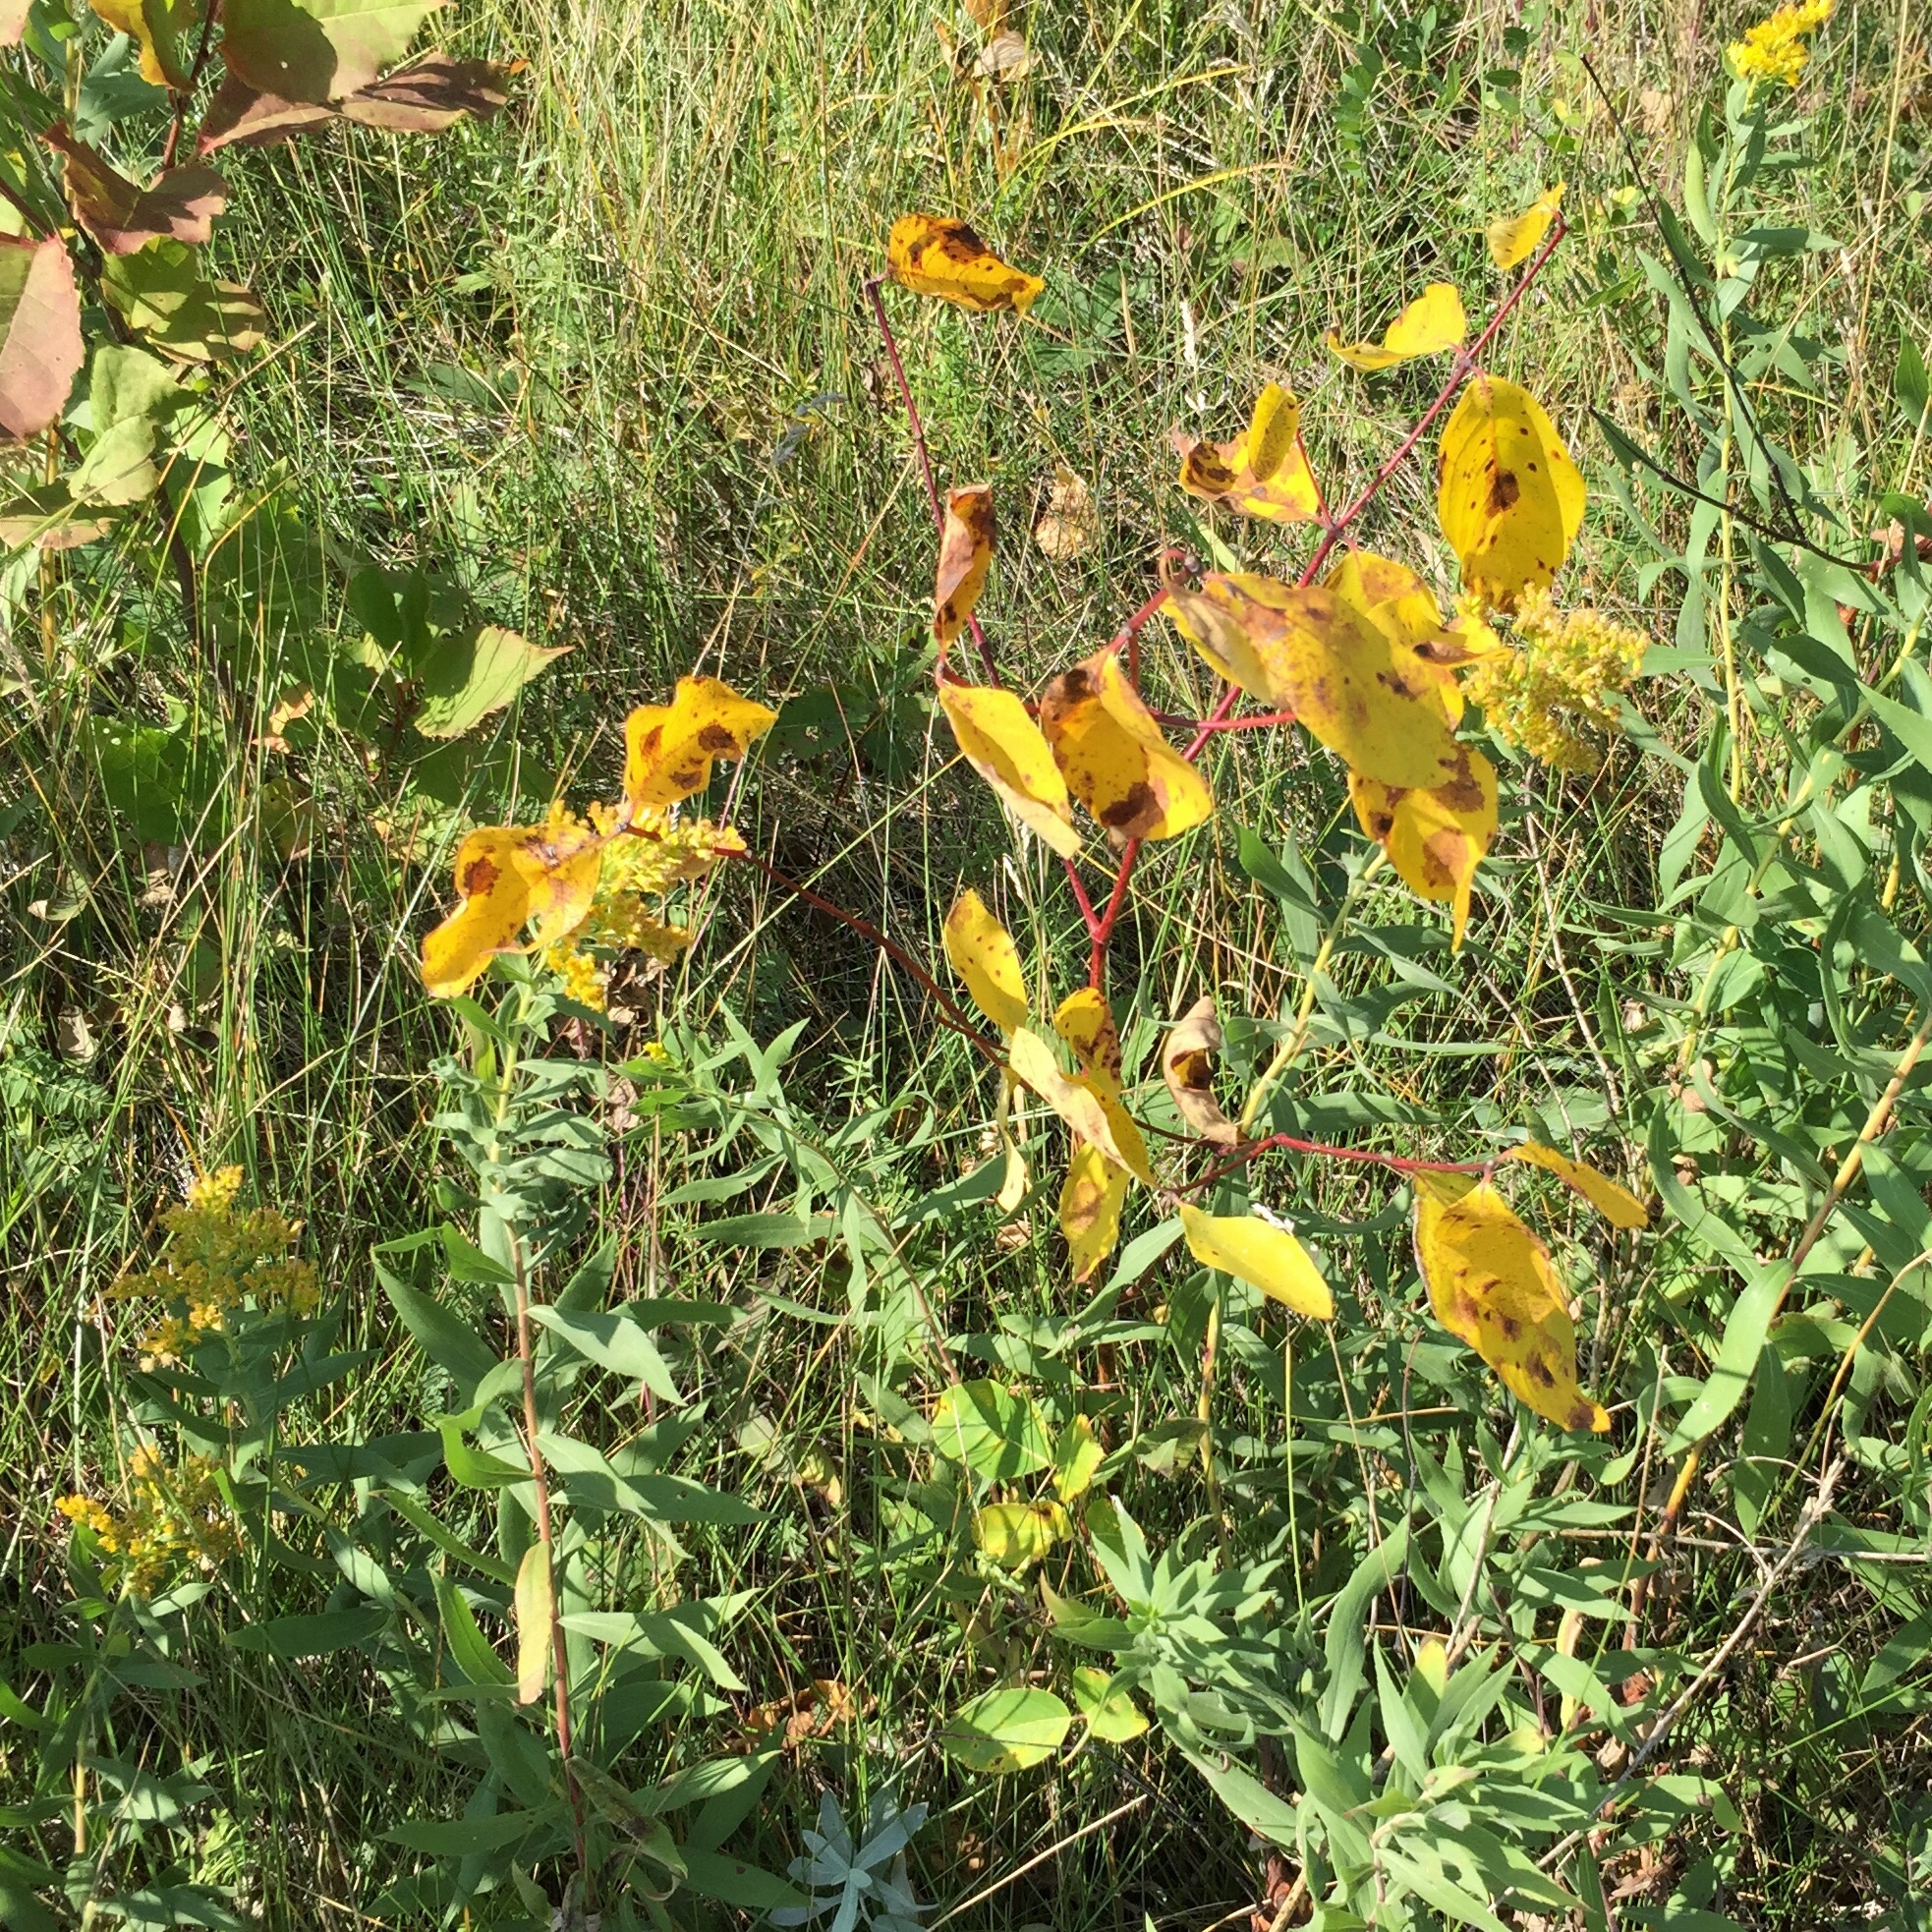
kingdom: Plantae
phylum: Tracheophyta
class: Magnoliopsida
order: Gentianales
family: Apocynaceae
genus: Apocynum
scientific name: Apocynum androsaemifolium
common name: Spreading dogbane
